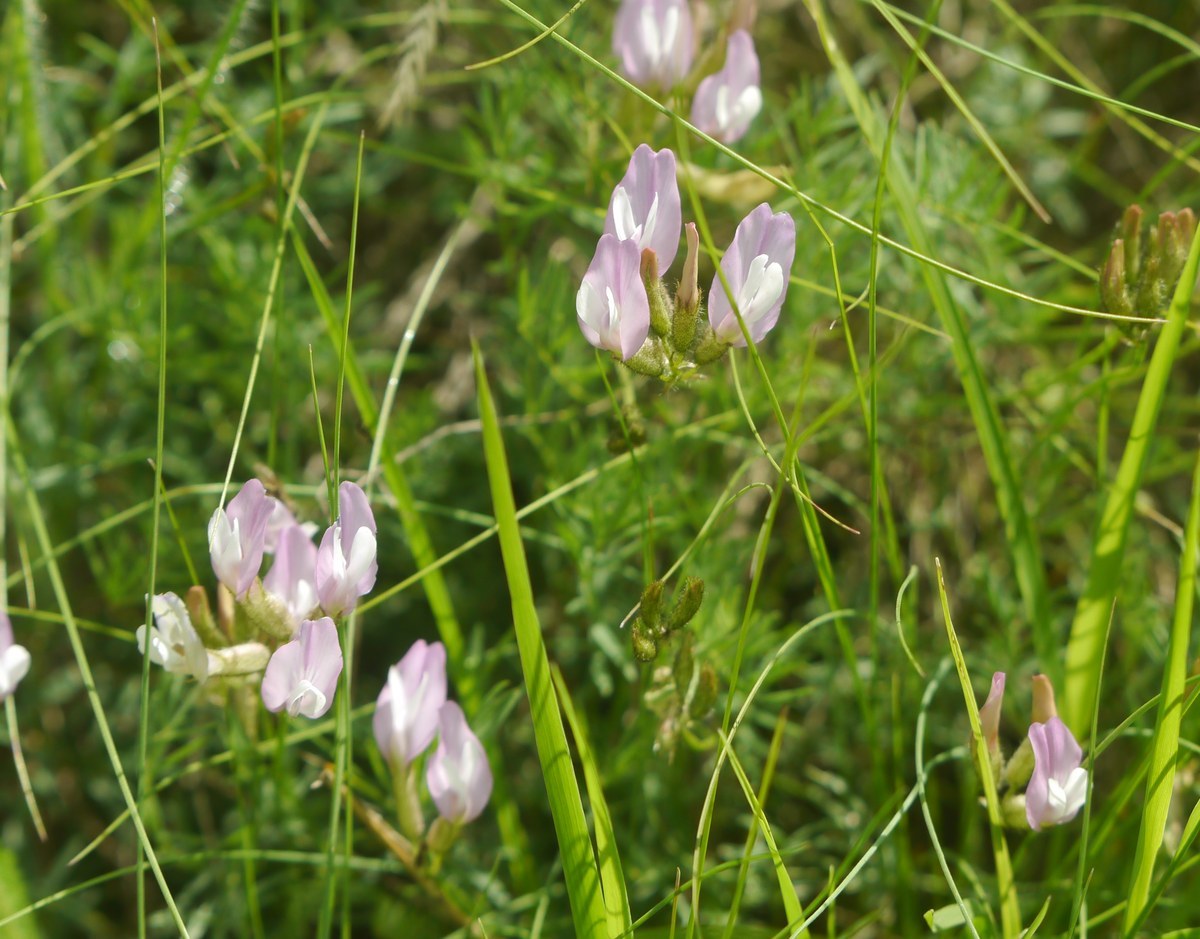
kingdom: Plantae
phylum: Tracheophyta
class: Magnoliopsida
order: Fabales
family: Fabaceae
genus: Astragalus
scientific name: Astragalus corniculatus
